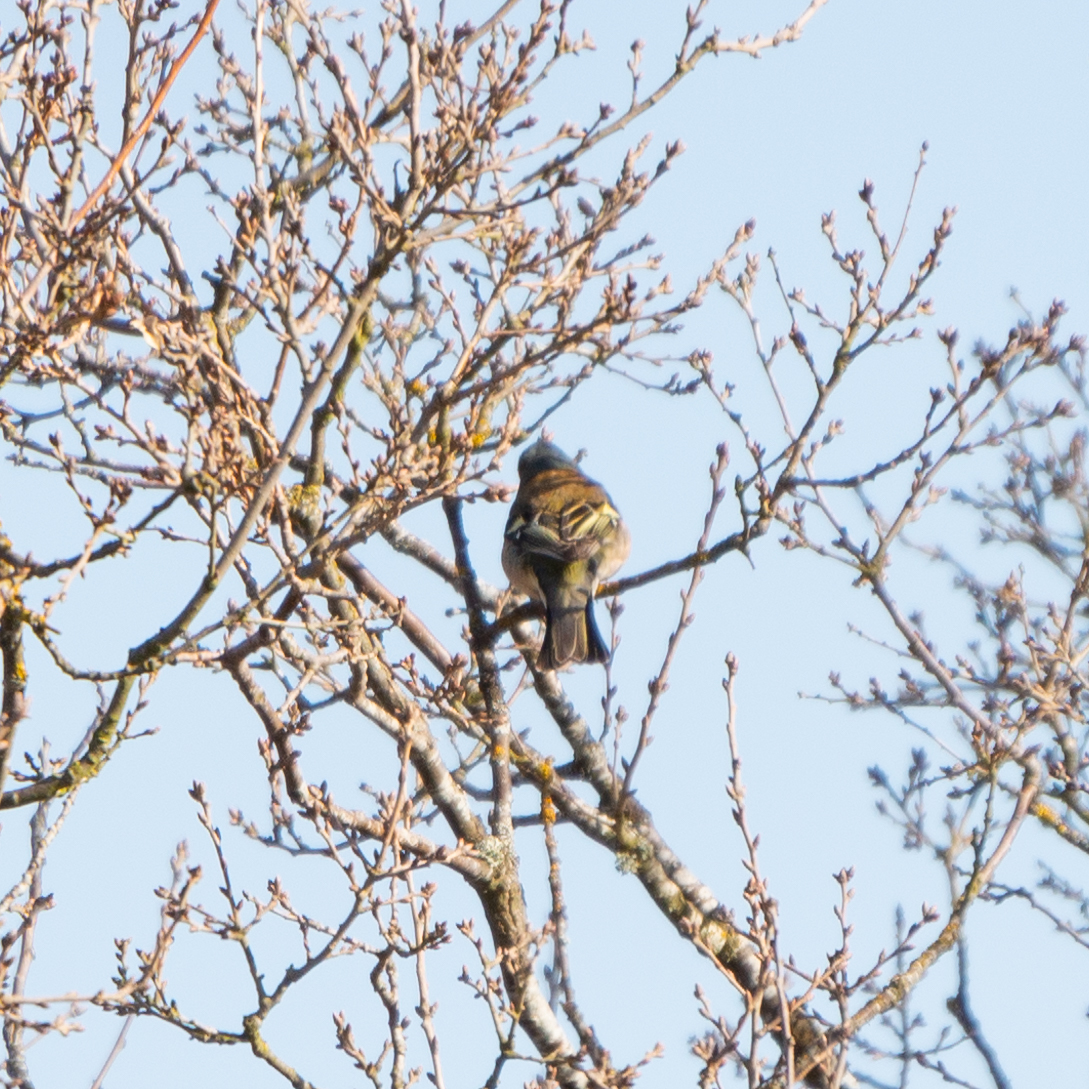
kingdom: Animalia
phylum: Chordata
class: Aves
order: Passeriformes
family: Fringillidae
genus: Fringilla
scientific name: Fringilla coelebs
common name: Common chaffinch
